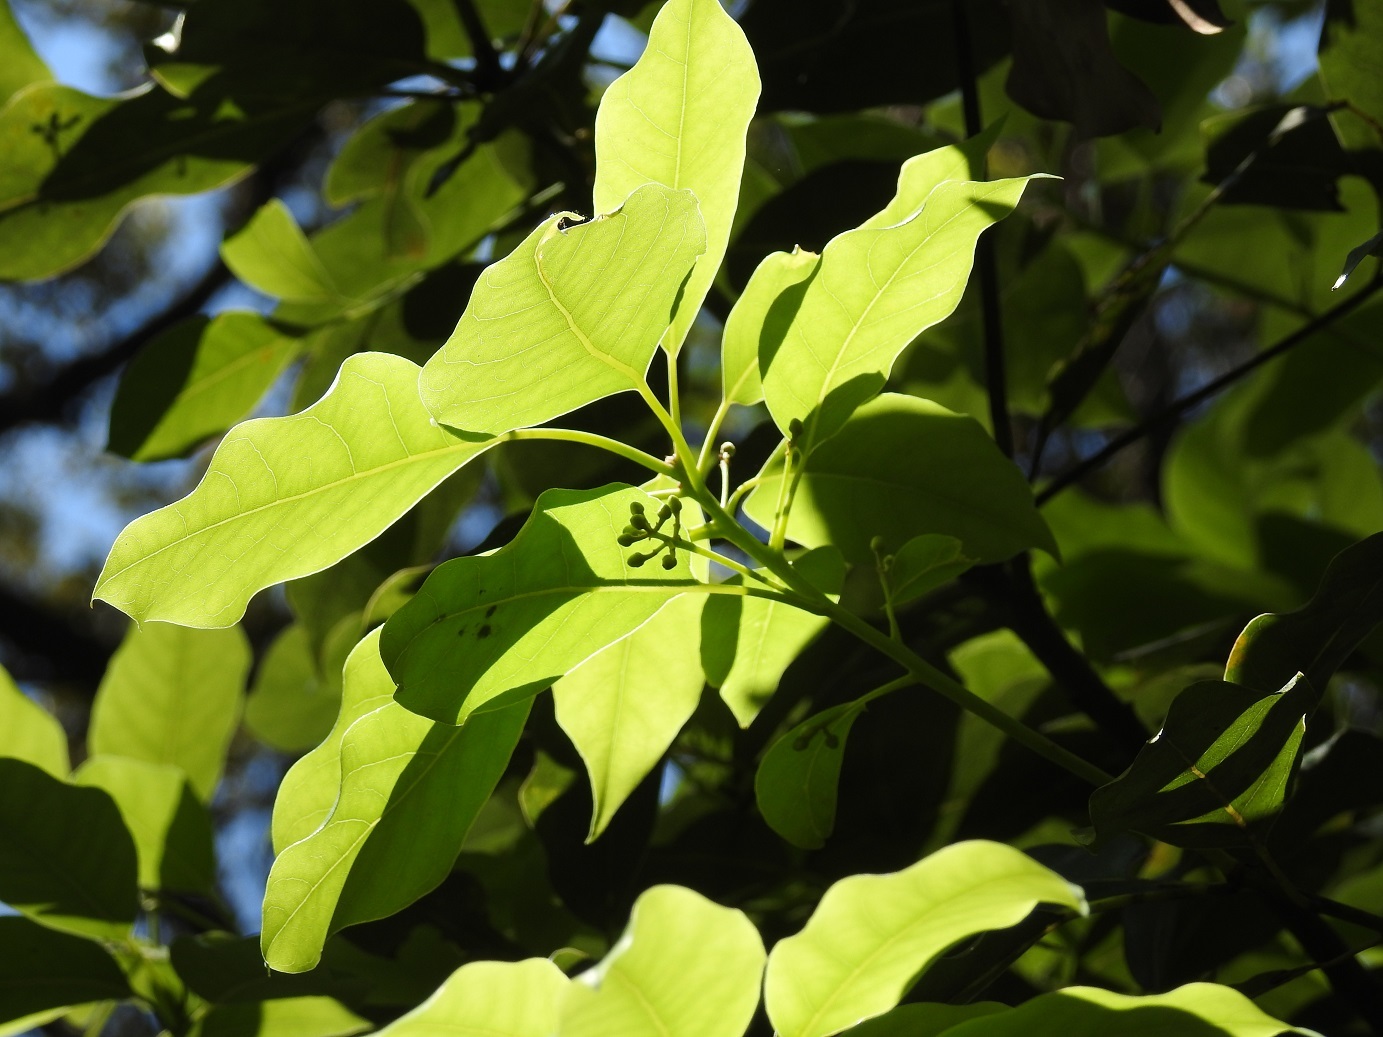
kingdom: Plantae
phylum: Tracheophyta
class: Magnoliopsida
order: Laurales
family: Lauraceae
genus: Ocotea
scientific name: Ocotea heydeana
